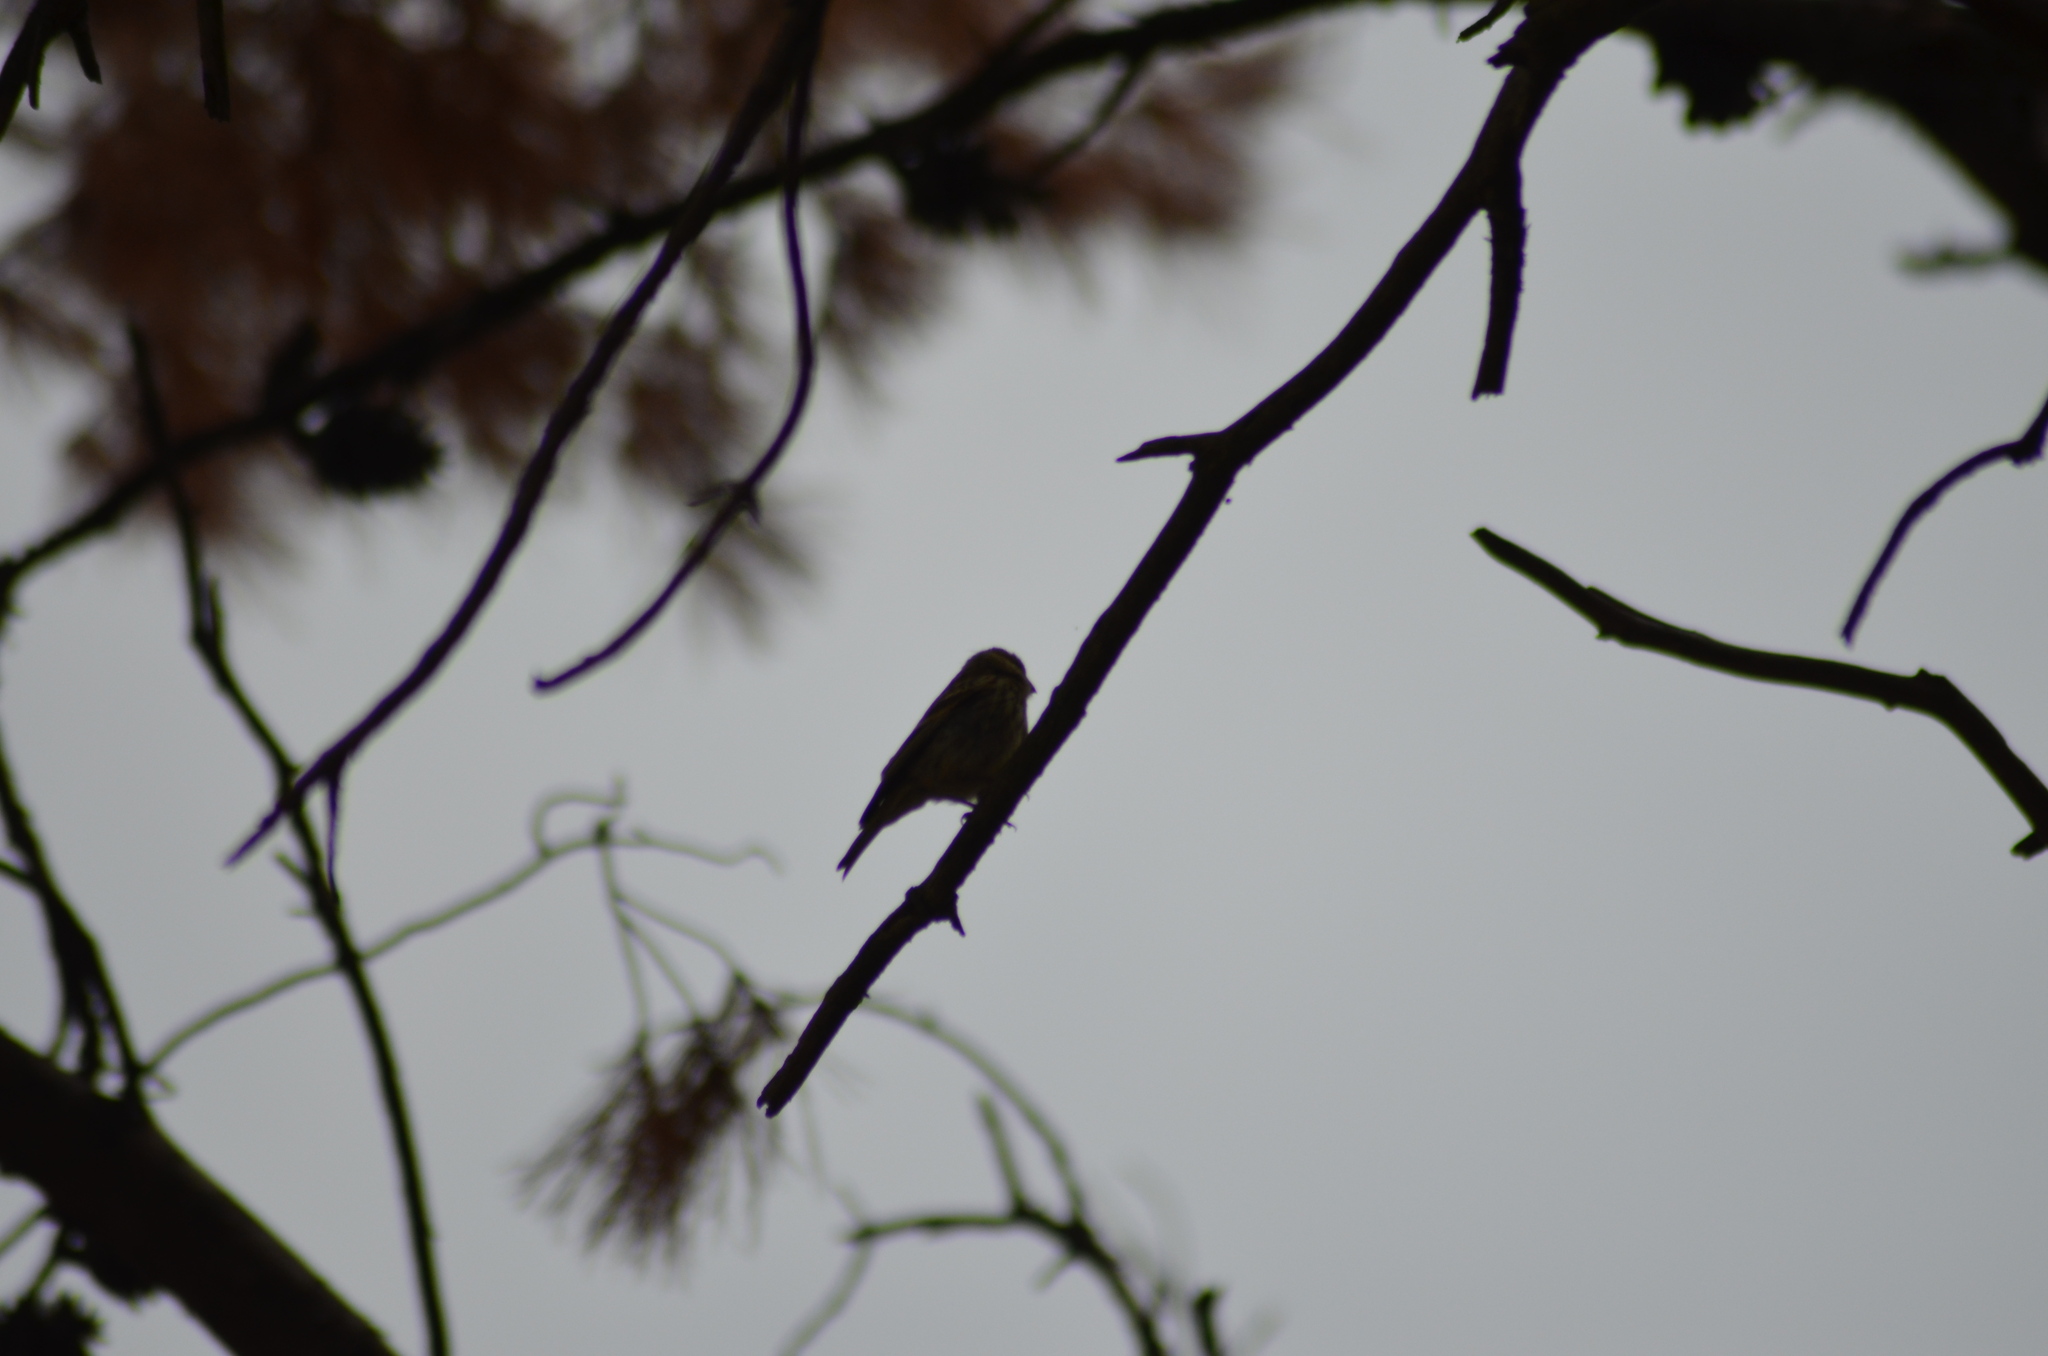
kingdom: Animalia
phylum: Chordata
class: Aves
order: Passeriformes
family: Fringillidae
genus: Serinus
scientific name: Serinus serinus
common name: European serin
